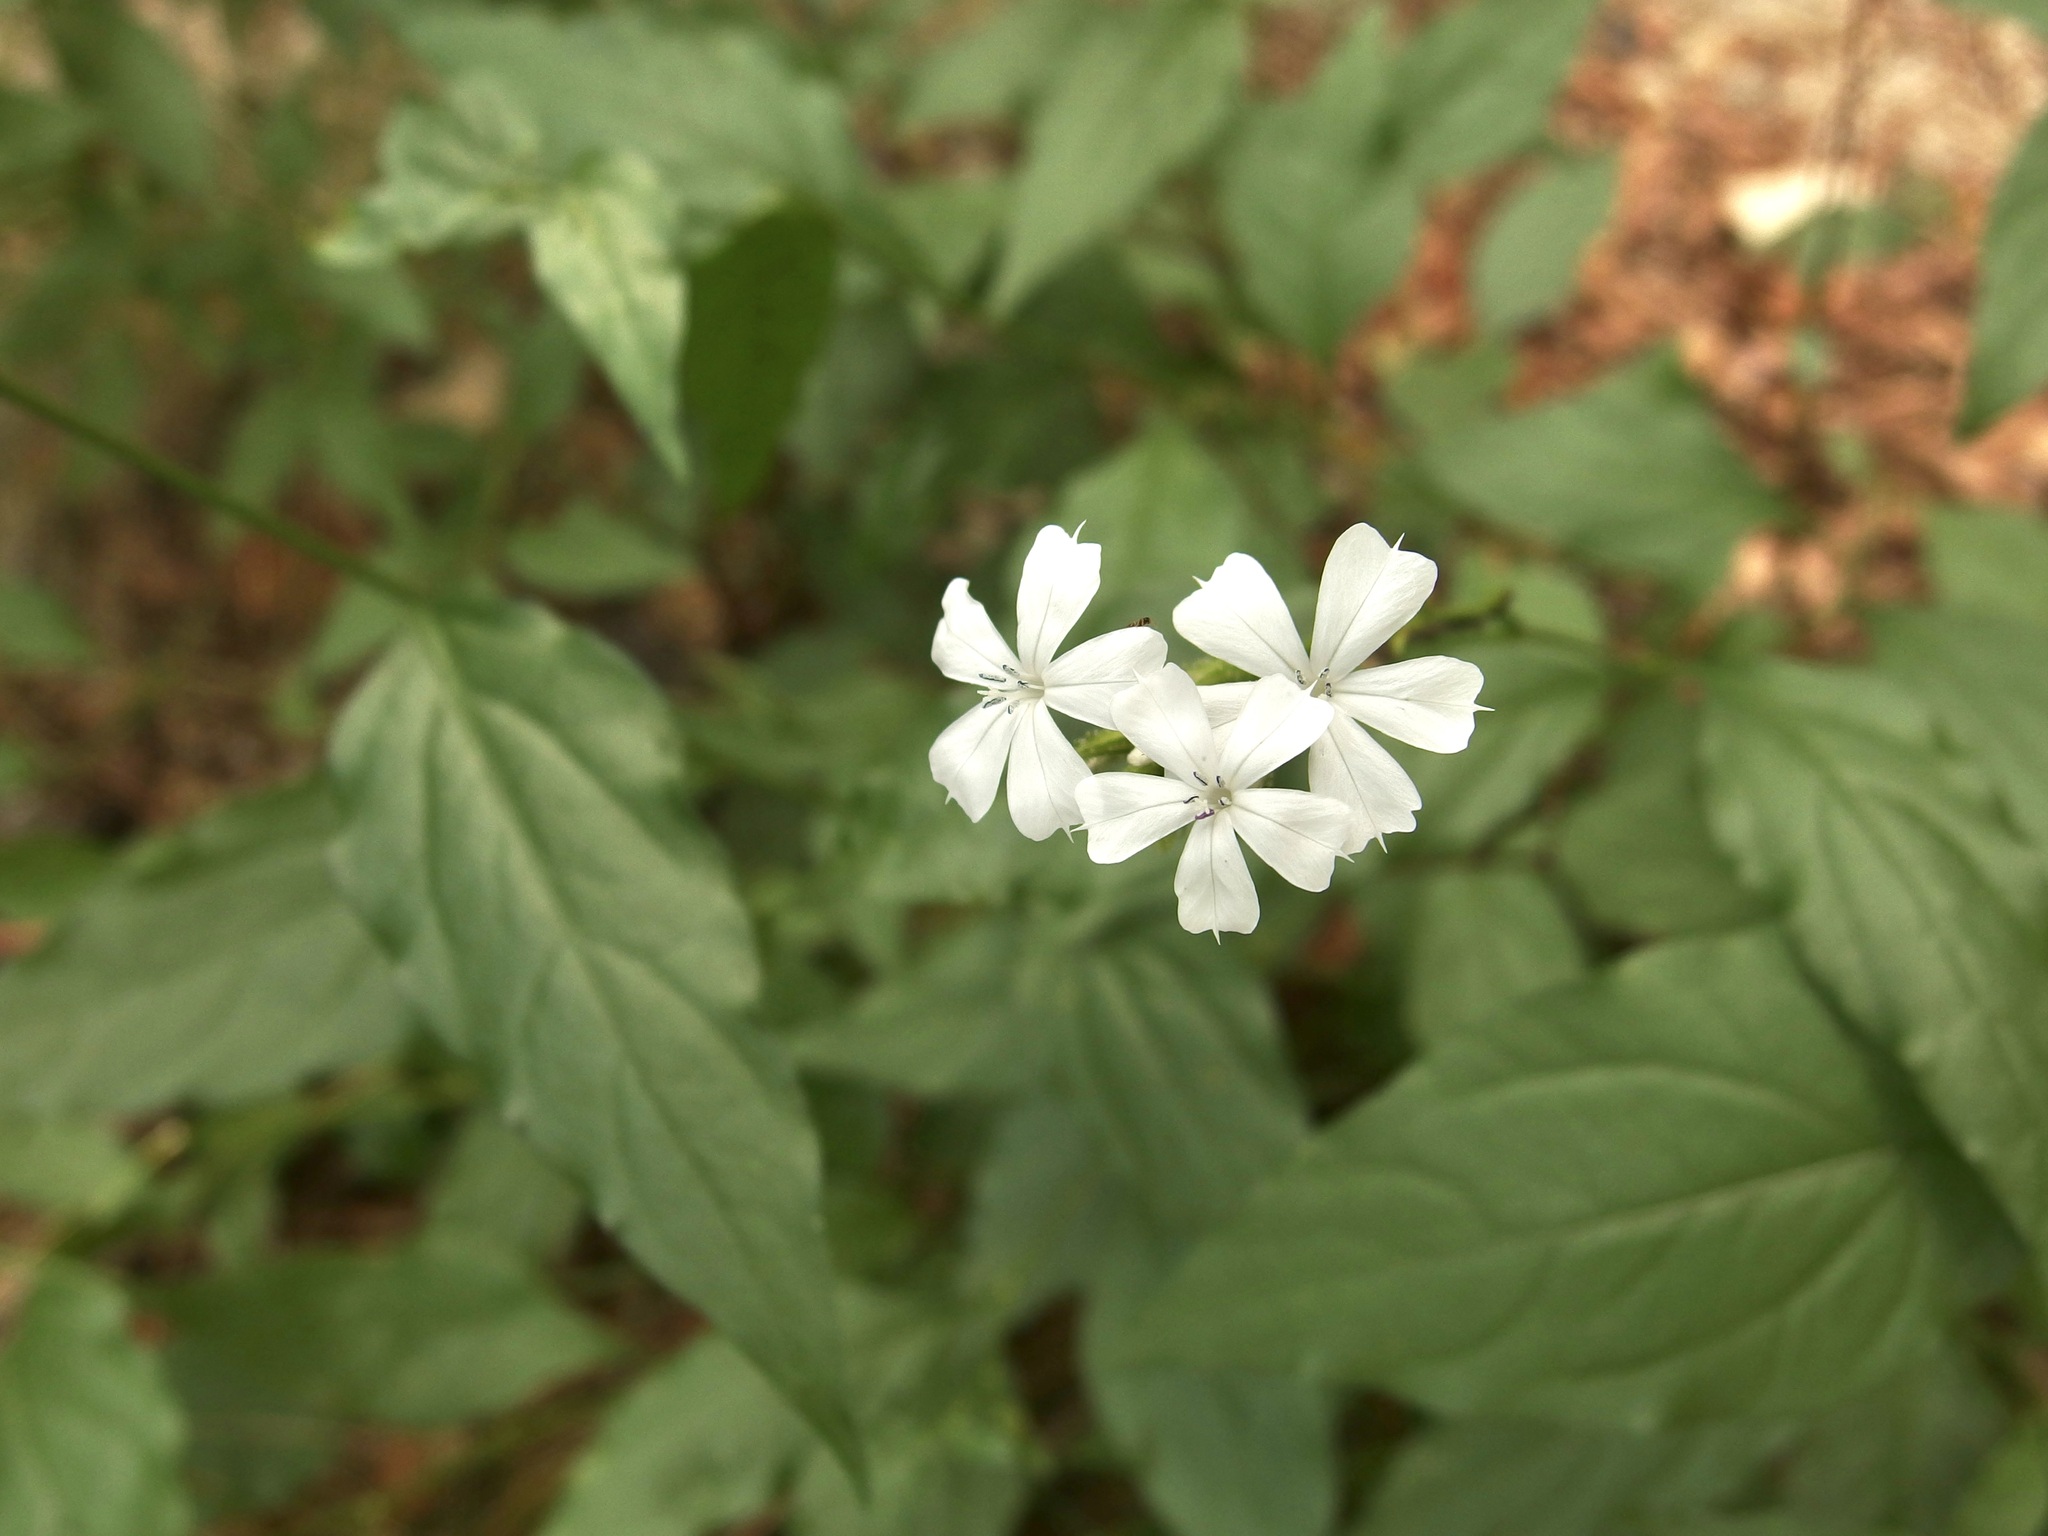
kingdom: Plantae
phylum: Tracheophyta
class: Magnoliopsida
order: Caryophyllales
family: Plumbaginaceae
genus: Plumbago
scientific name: Plumbago zeylanica
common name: Doctorbush
